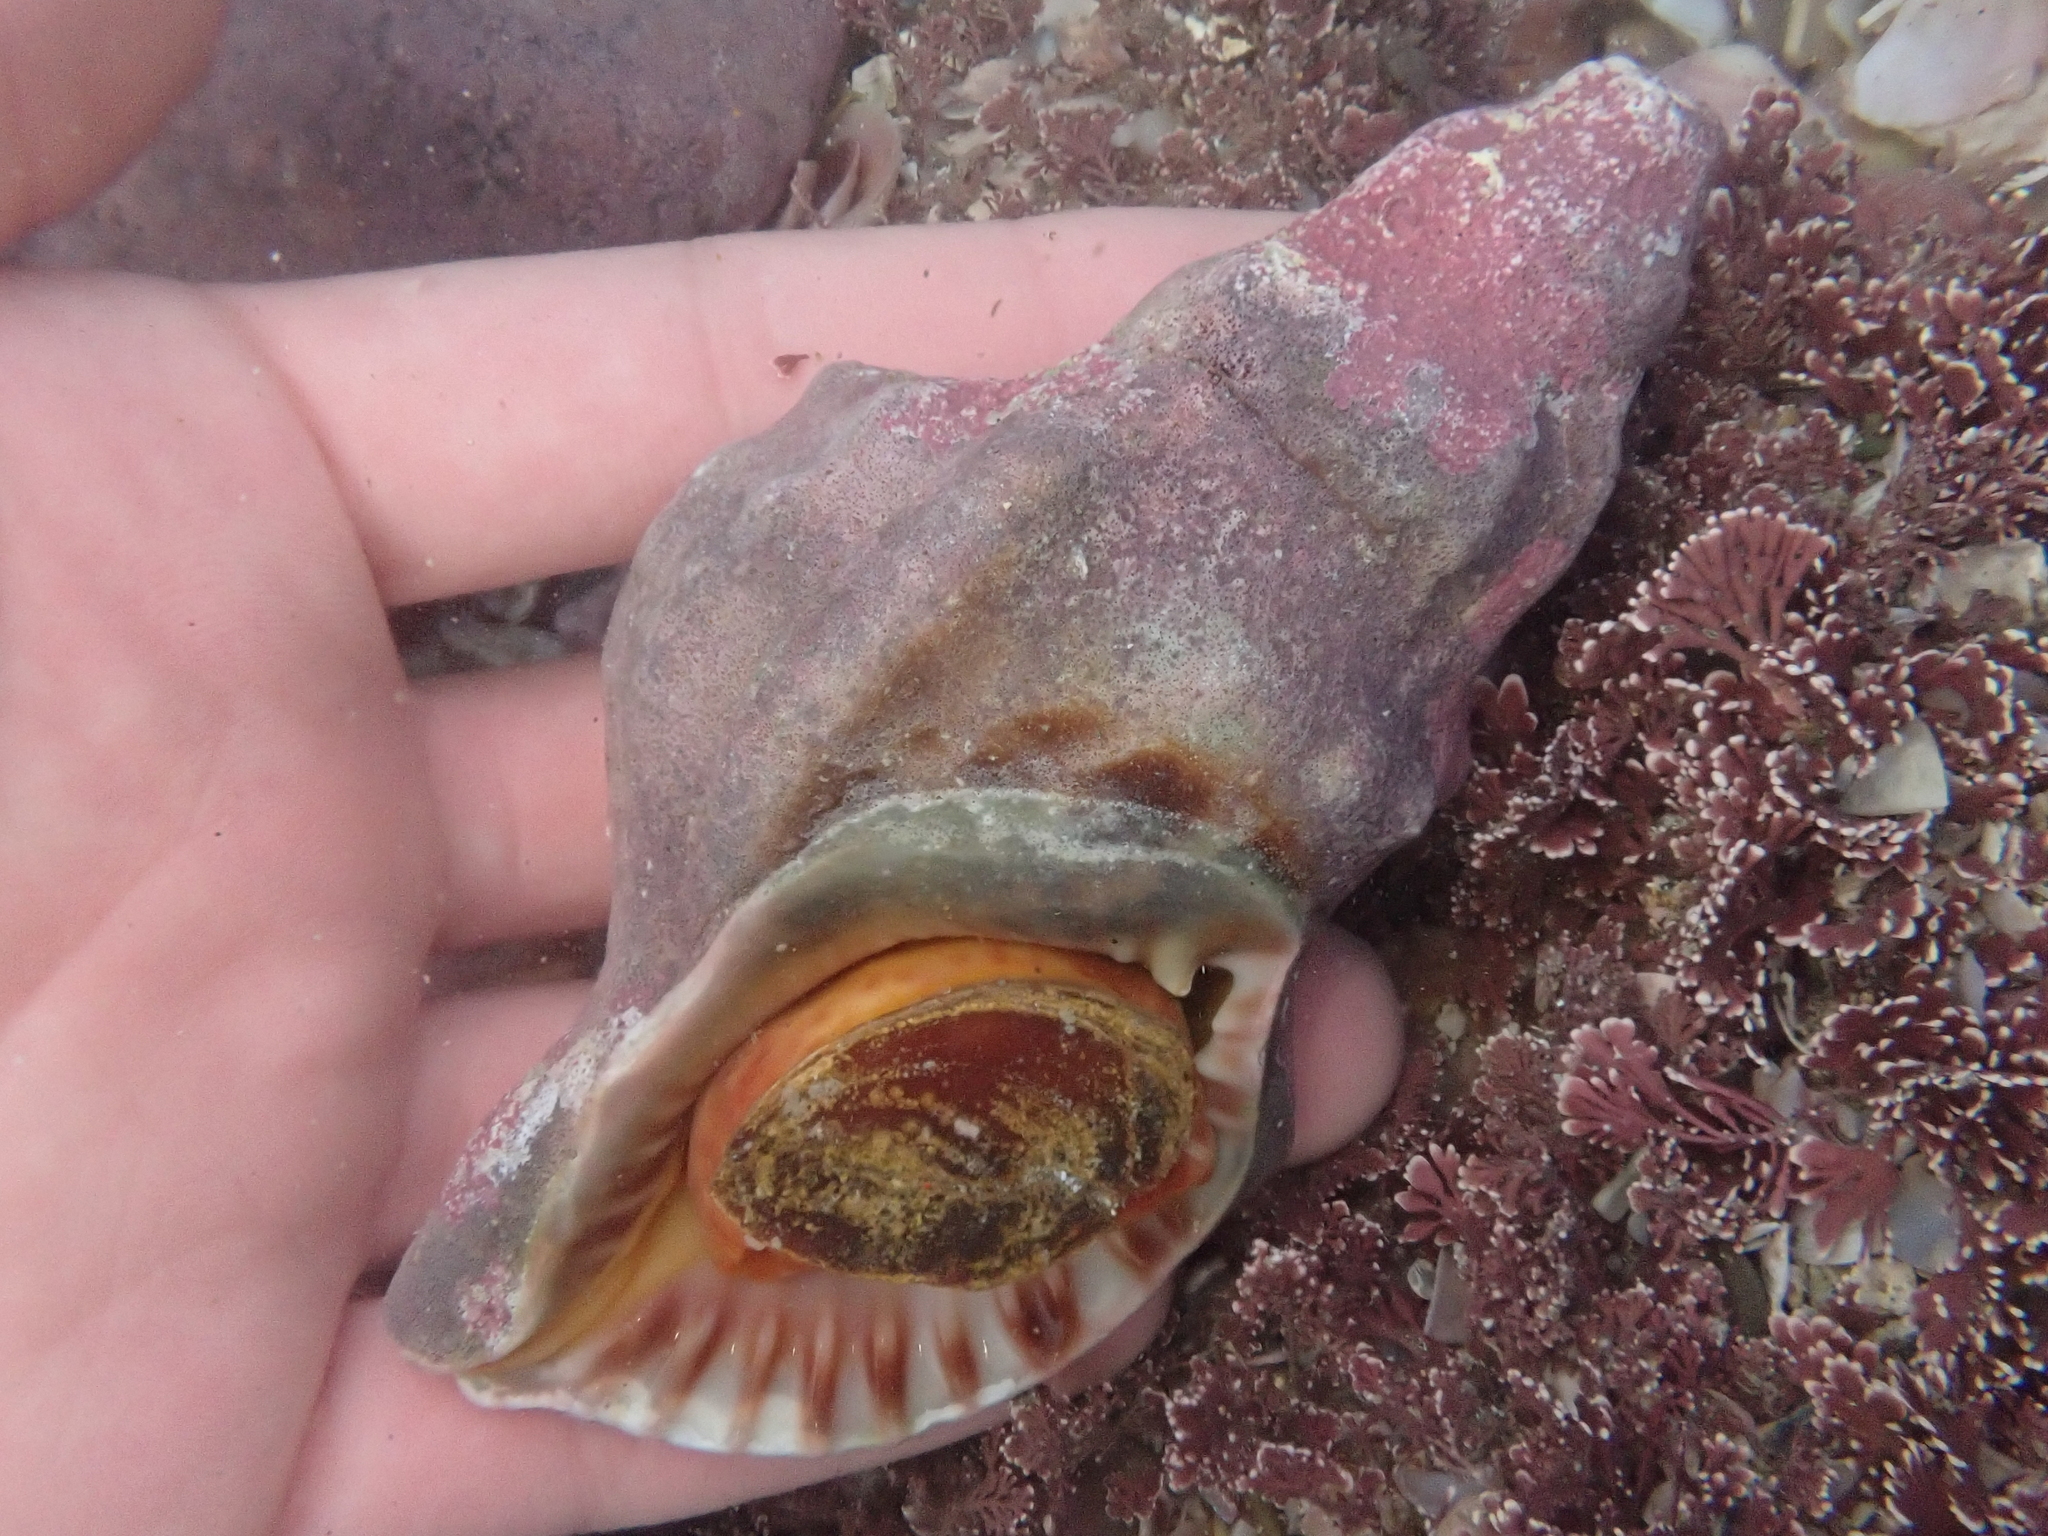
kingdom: Animalia
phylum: Mollusca
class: Gastropoda
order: Littorinimorpha
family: Charoniidae
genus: Charonia
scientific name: Charonia lampas
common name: Knobbed triton
